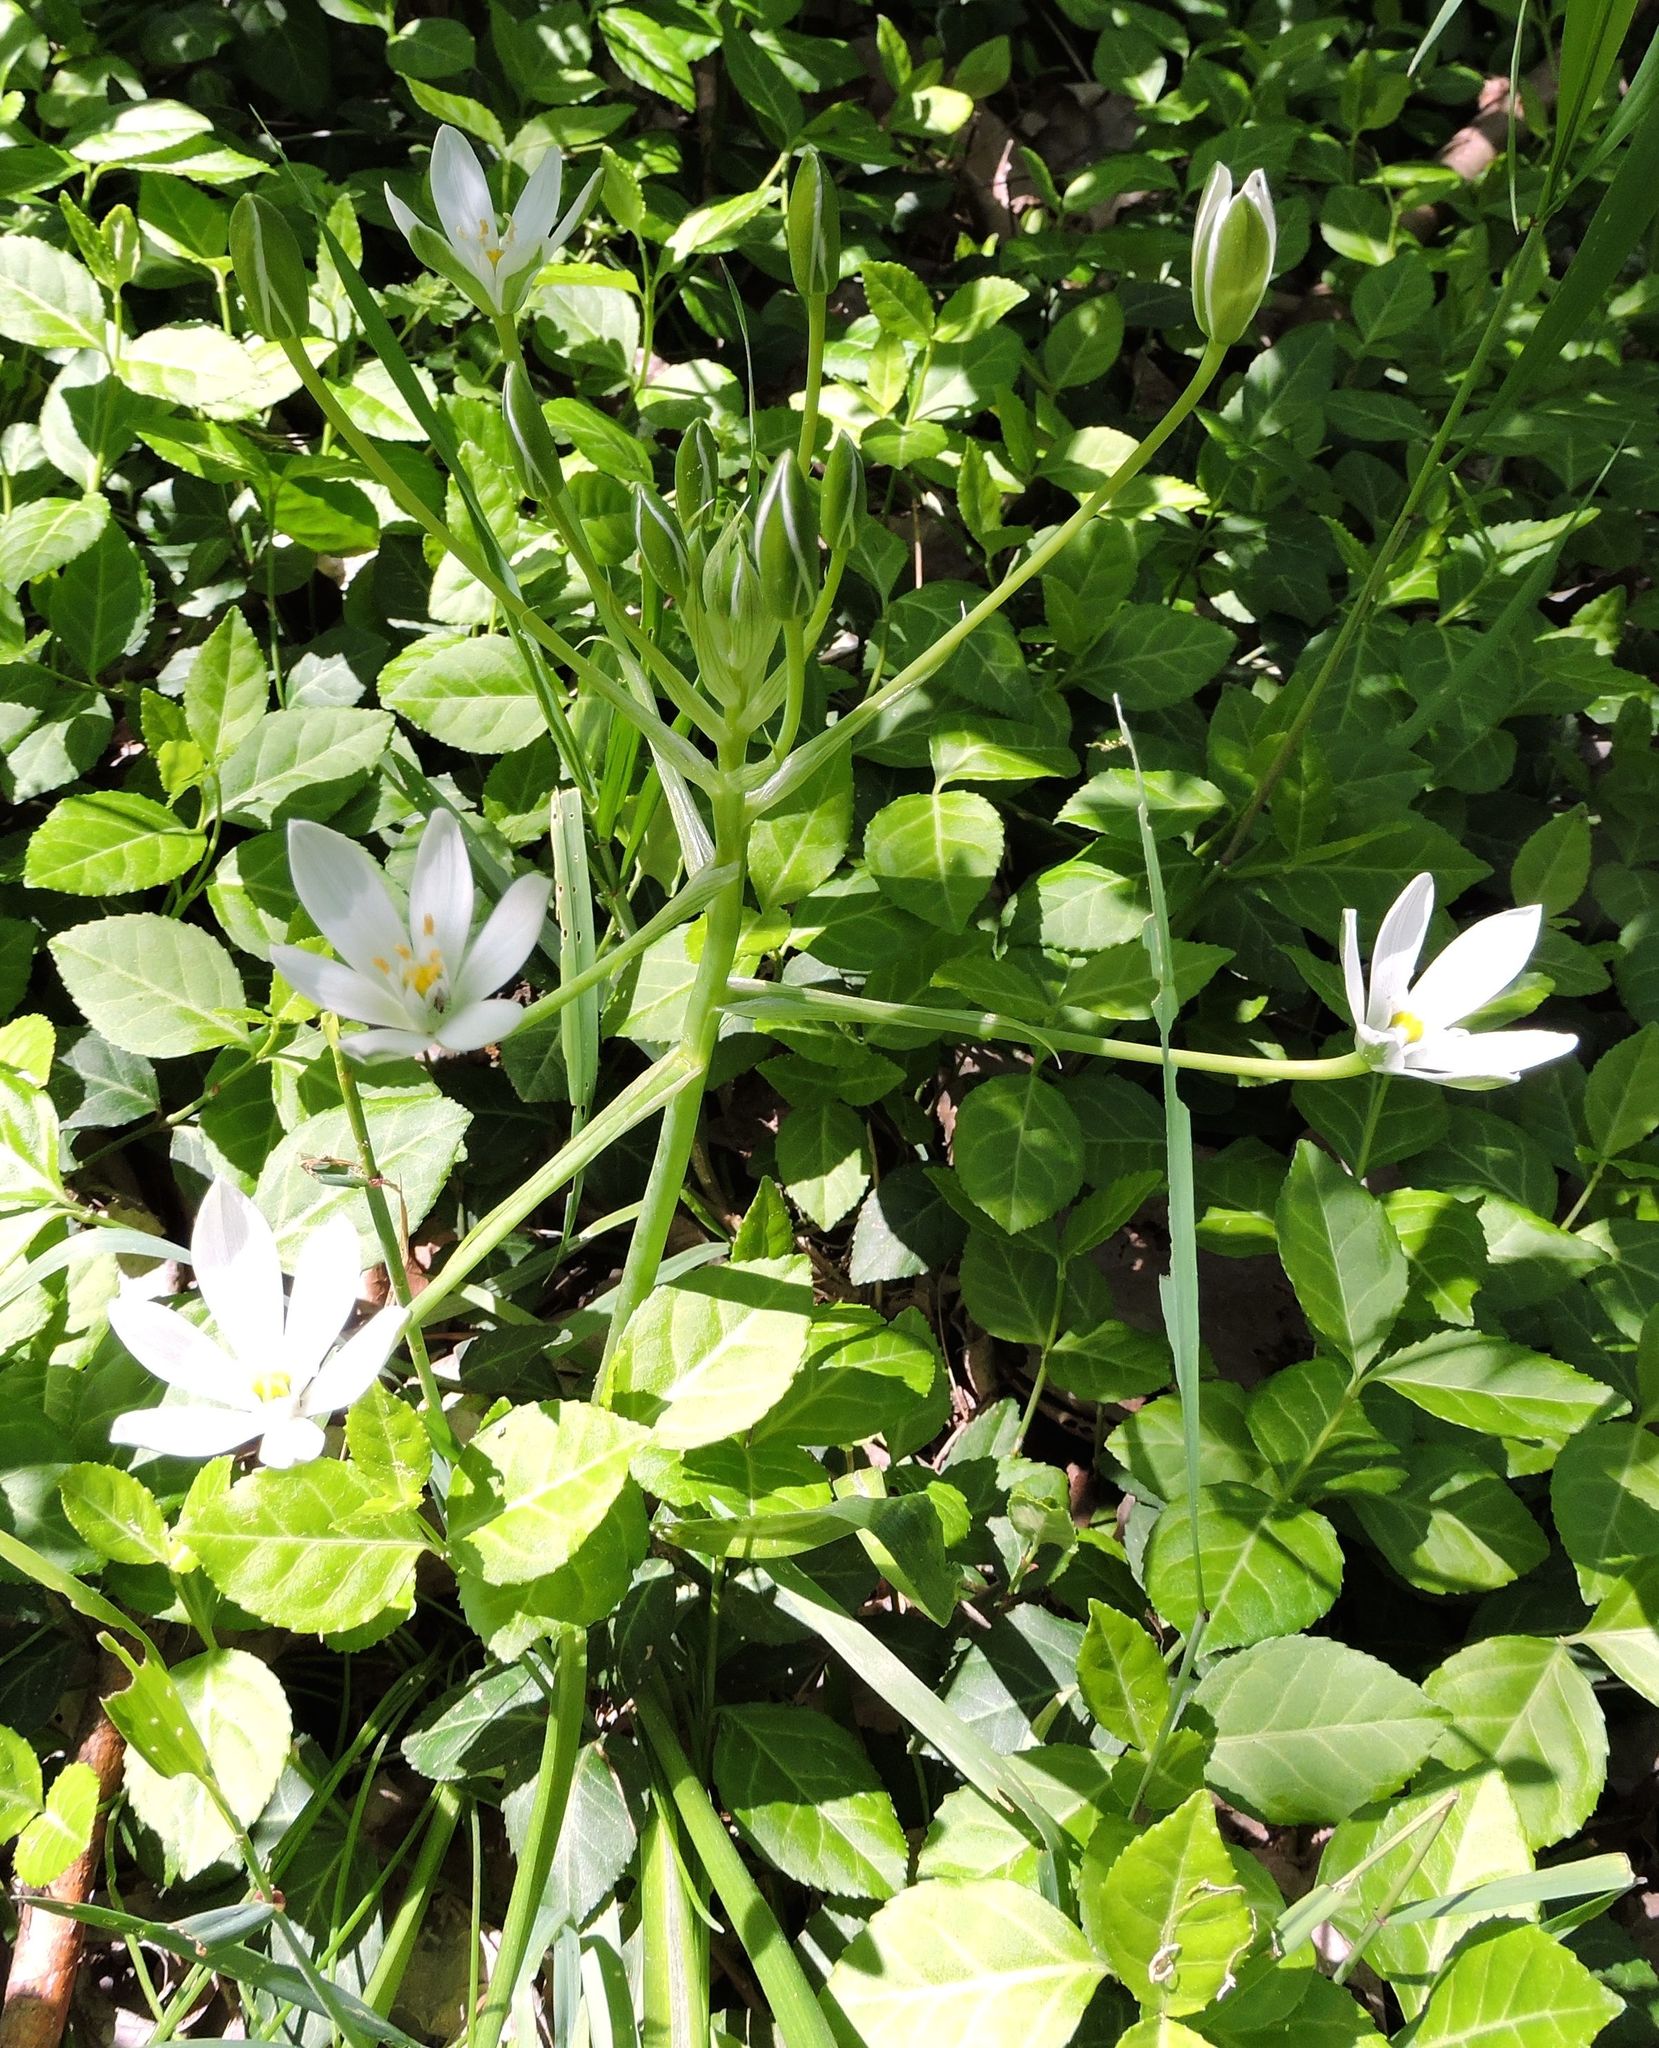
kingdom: Plantae
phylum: Tracheophyta
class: Liliopsida
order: Asparagales
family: Asparagaceae
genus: Ornithogalum
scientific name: Ornithogalum umbellatum
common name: Garden star-of-bethlehem
